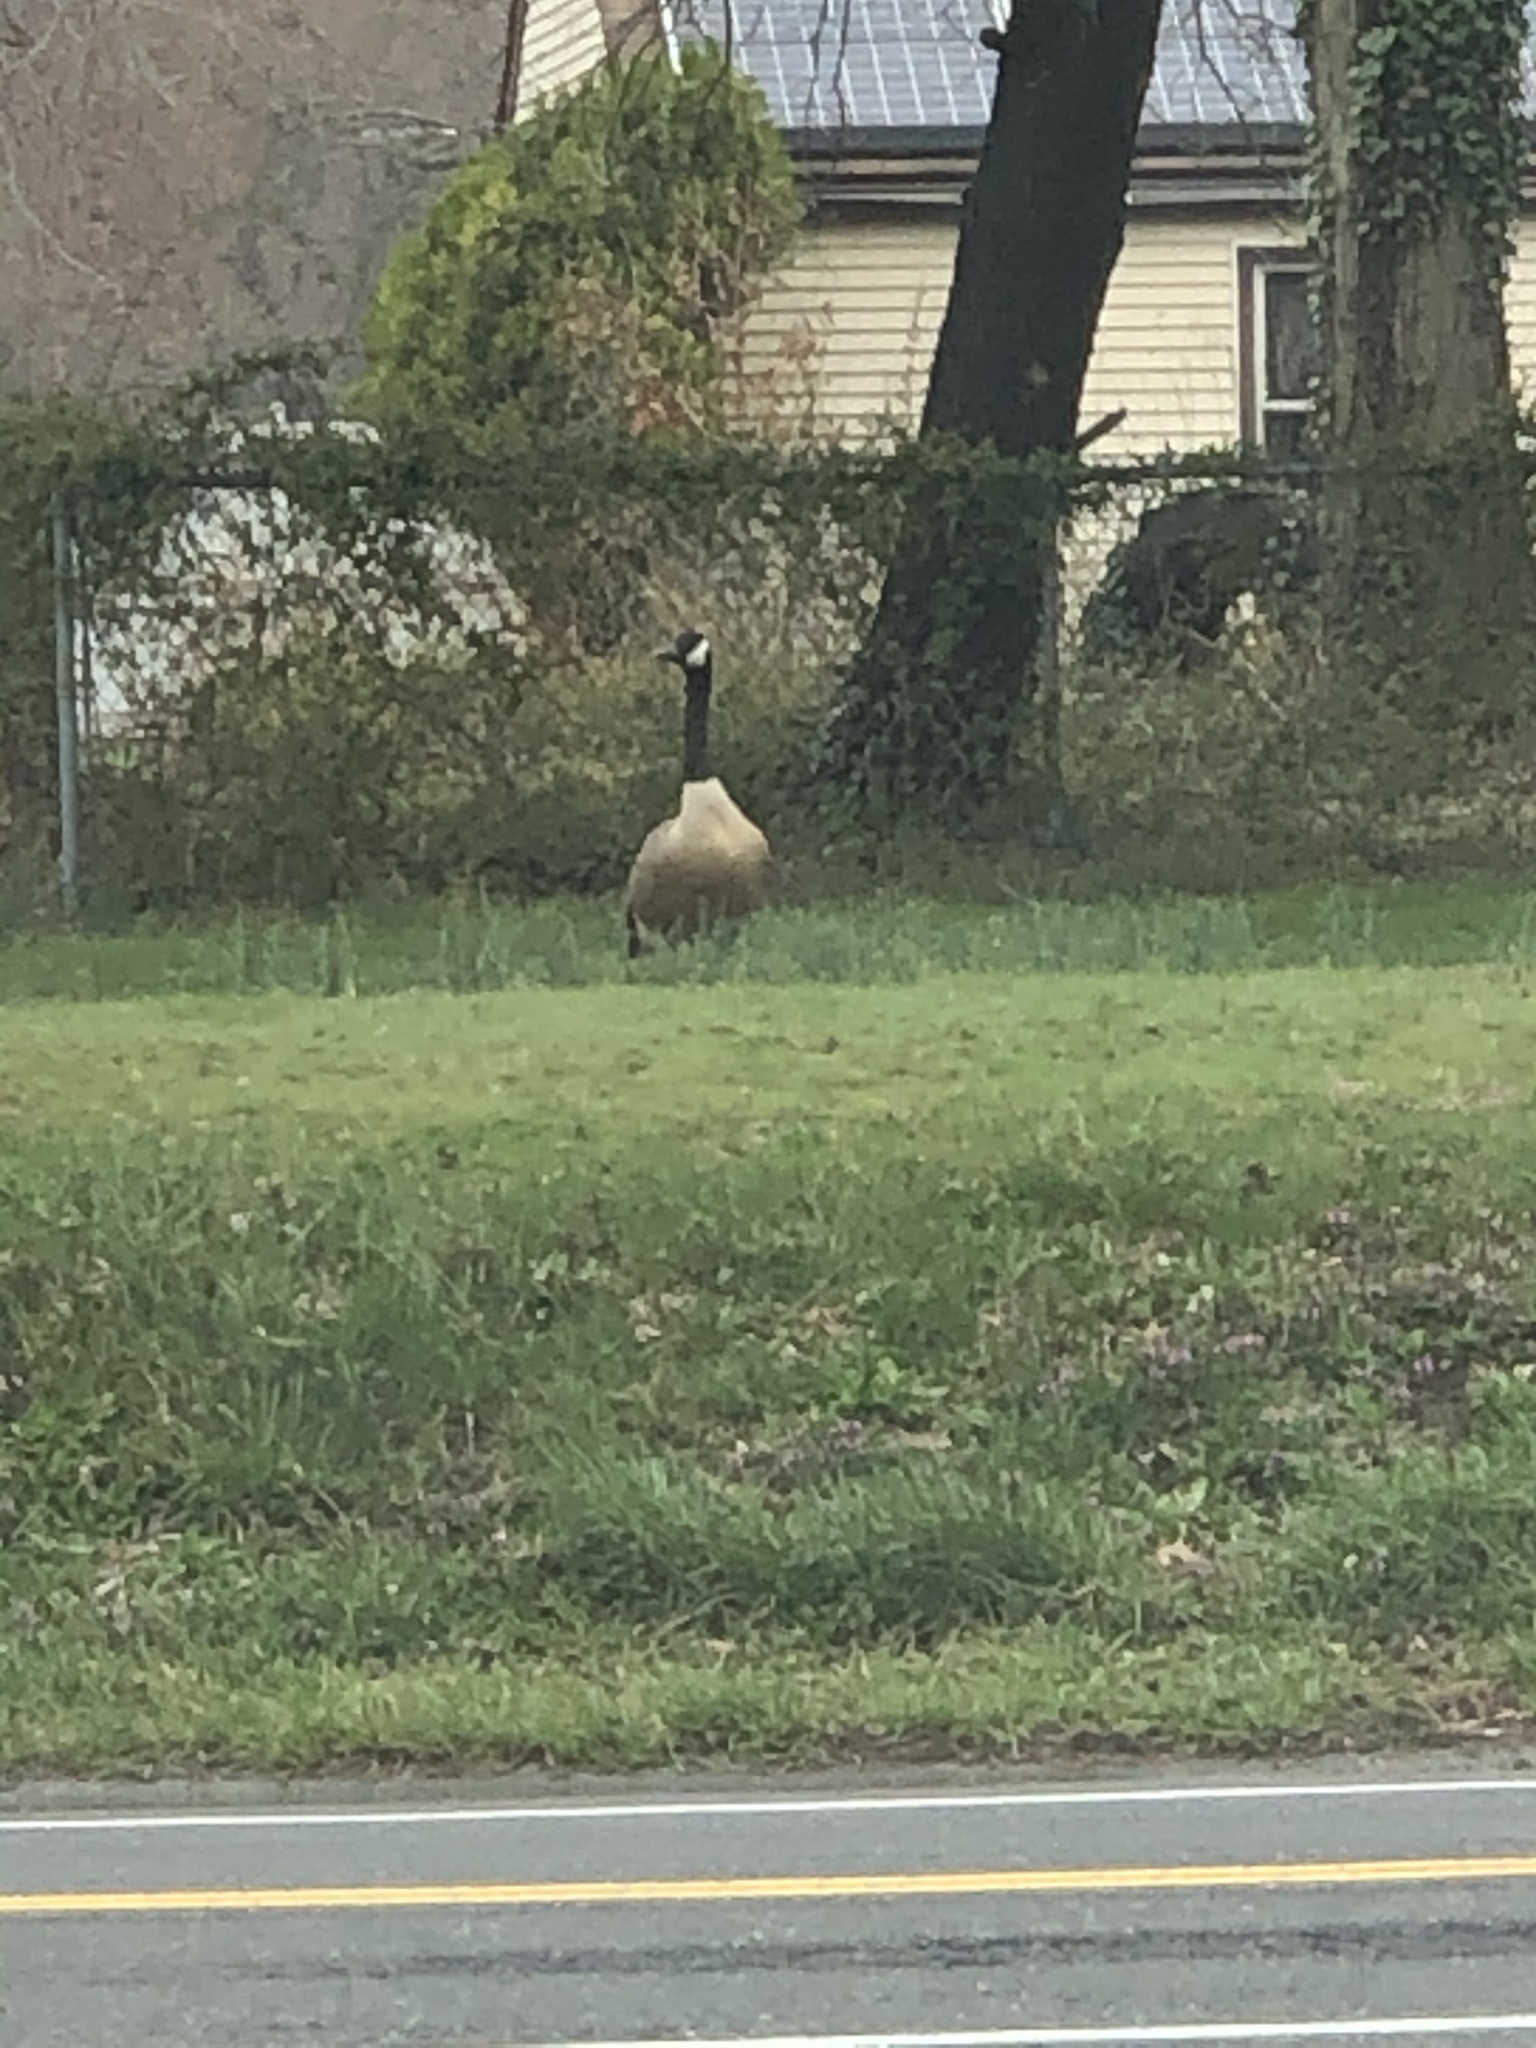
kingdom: Animalia
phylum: Chordata
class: Aves
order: Anseriformes
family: Anatidae
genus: Branta
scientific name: Branta canadensis
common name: Canada goose
